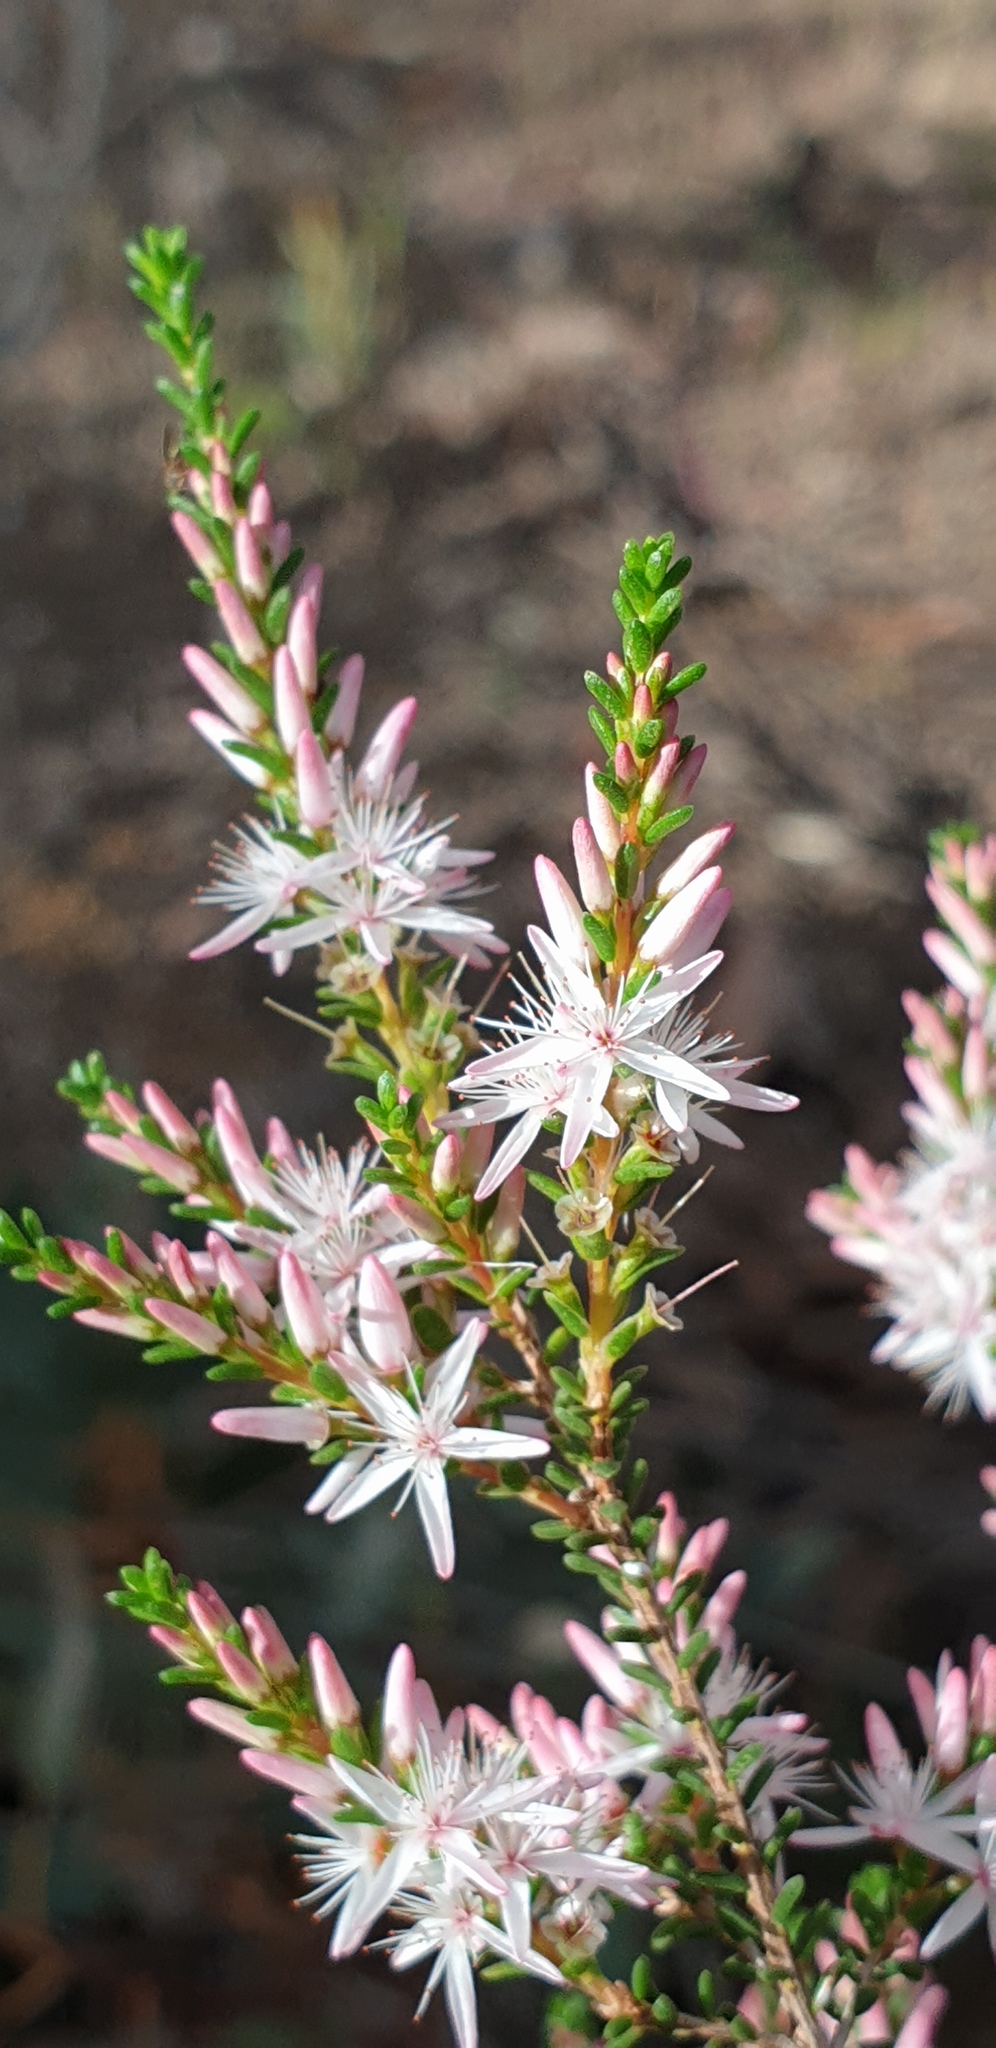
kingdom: Plantae
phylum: Tracheophyta
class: Magnoliopsida
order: Myrtales
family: Myrtaceae
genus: Calytrix
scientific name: Calytrix glaberrima
